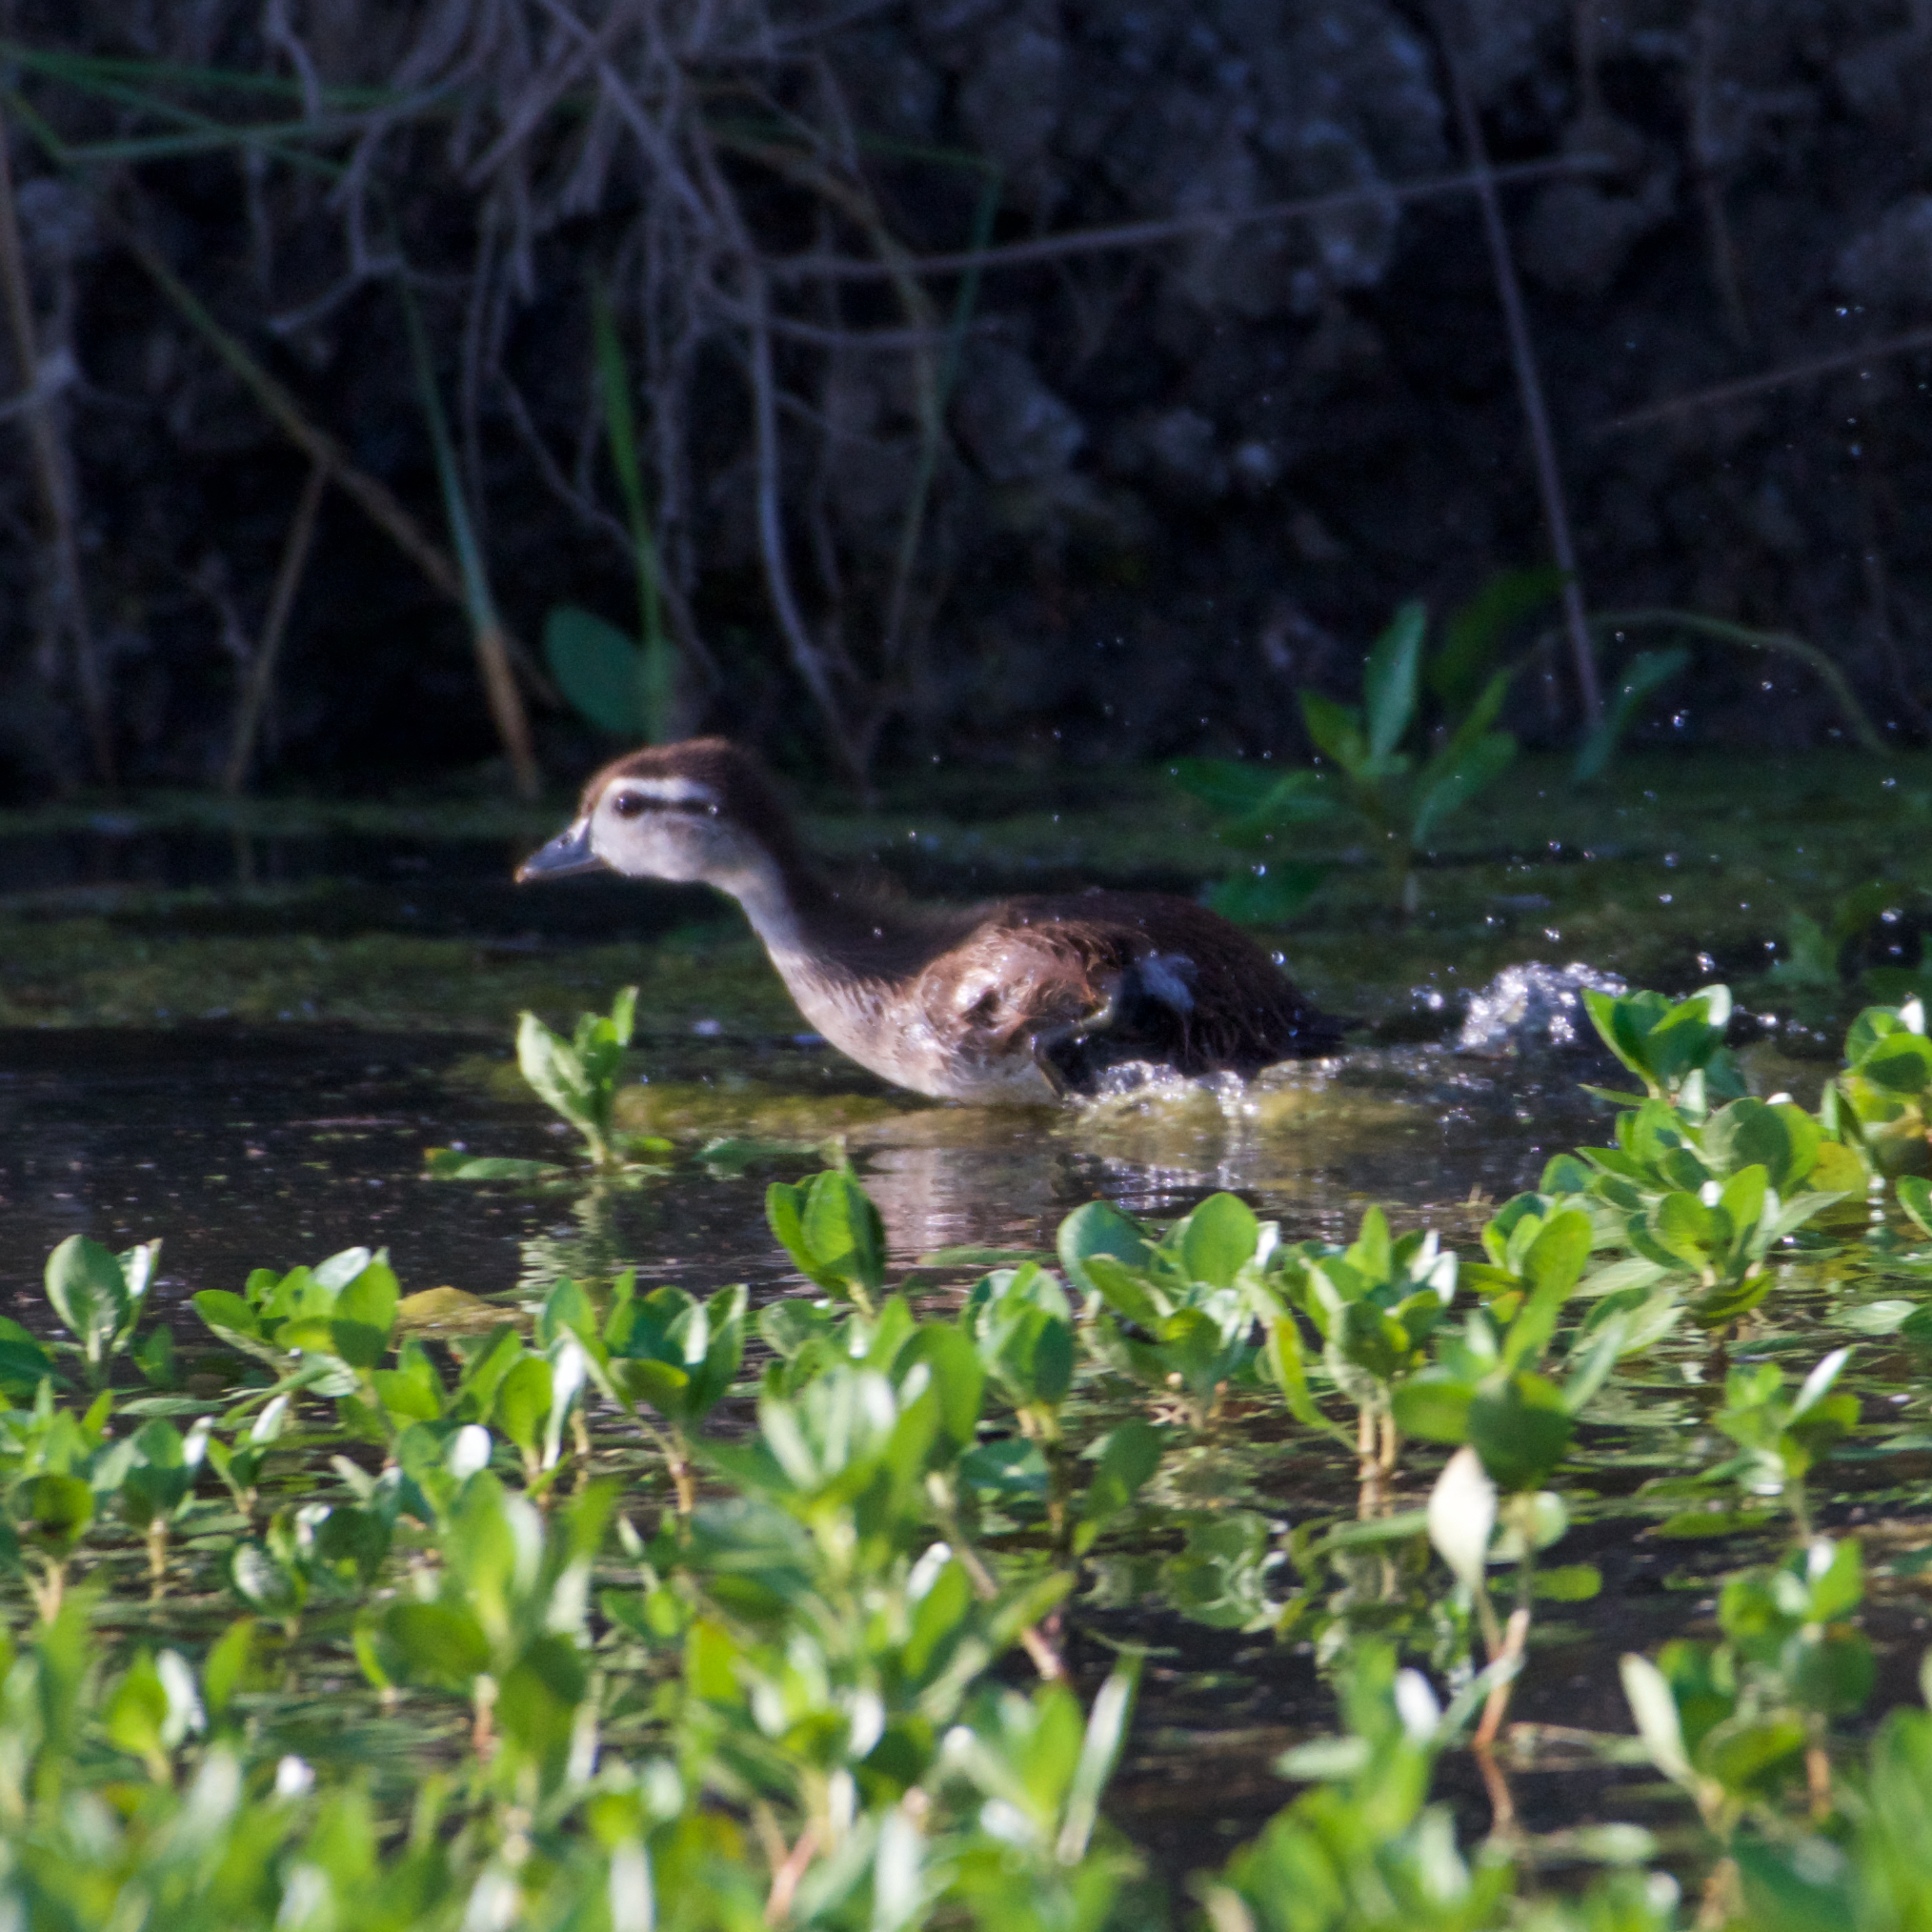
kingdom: Animalia
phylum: Chordata
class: Aves
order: Anseriformes
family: Anatidae
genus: Aix
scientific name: Aix sponsa
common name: Wood duck
